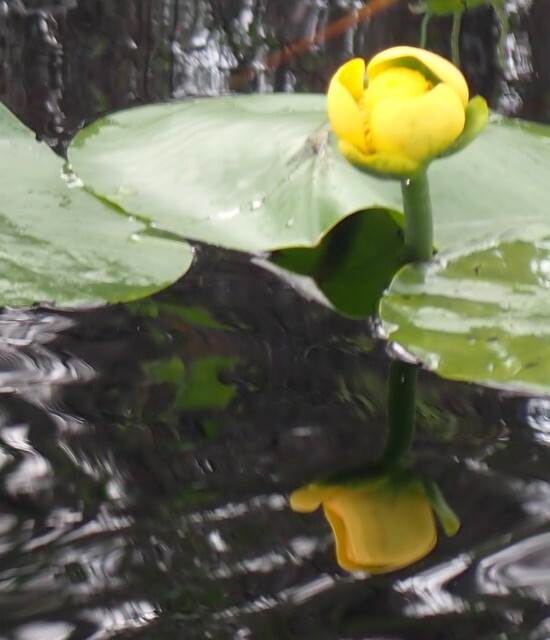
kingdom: Plantae
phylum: Tracheophyta
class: Magnoliopsida
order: Nymphaeales
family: Nymphaeaceae
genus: Nuphar
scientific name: Nuphar advena
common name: Spatter-dock
